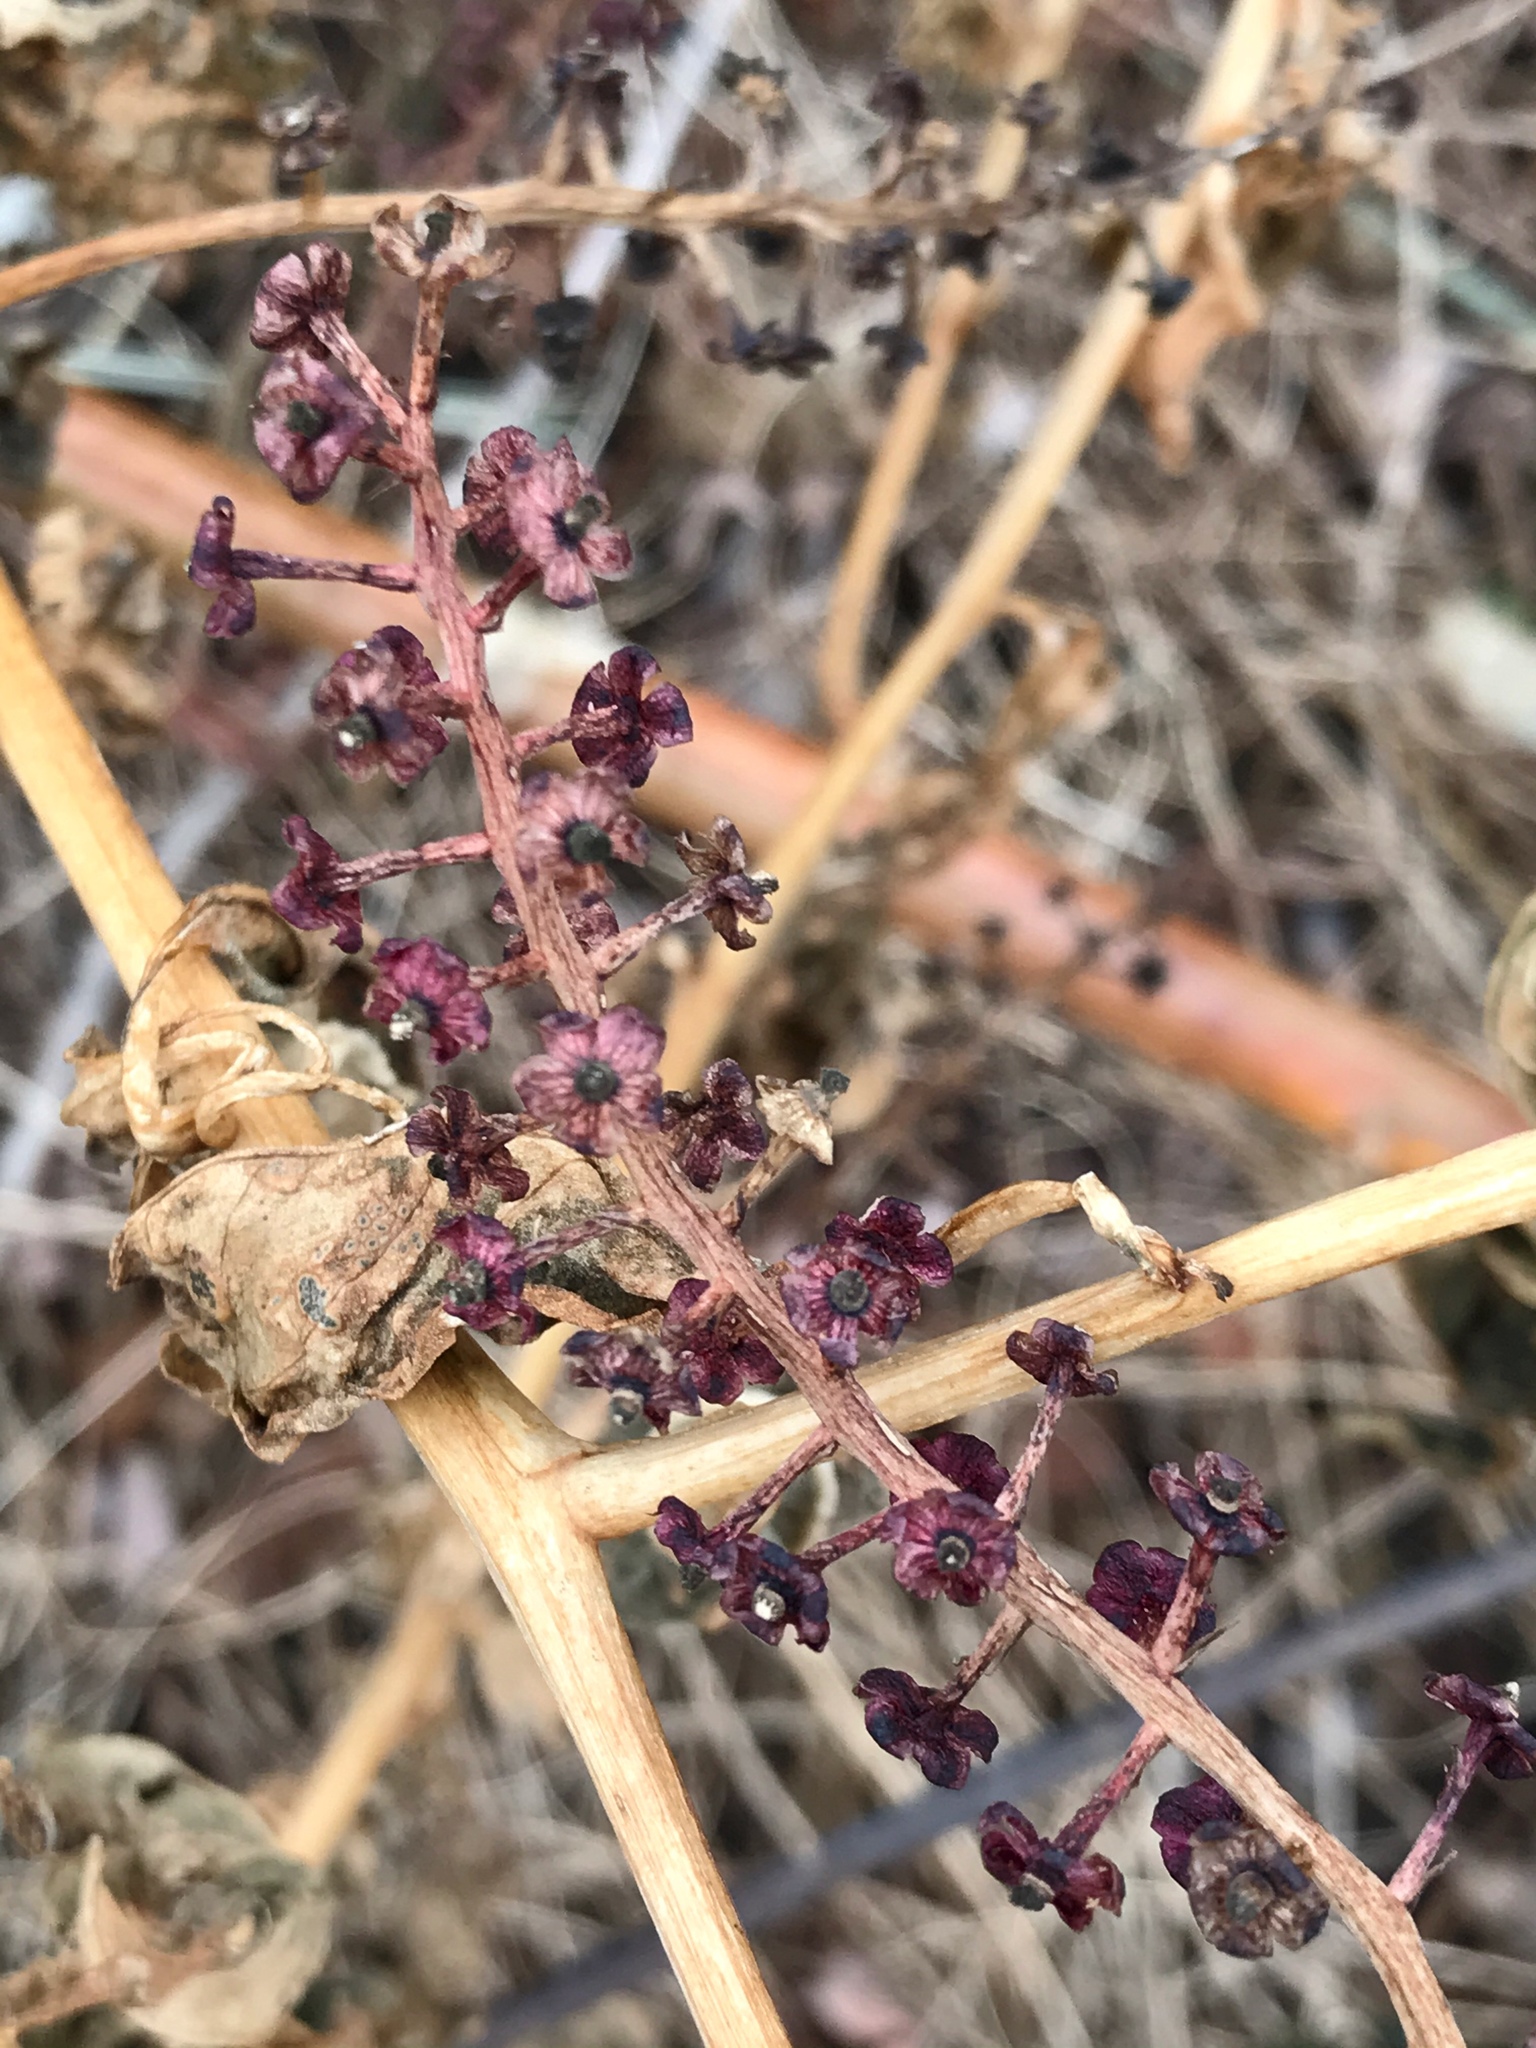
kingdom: Plantae
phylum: Tracheophyta
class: Magnoliopsida
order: Caryophyllales
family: Phytolaccaceae
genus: Phytolacca
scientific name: Phytolacca americana
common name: American pokeweed
